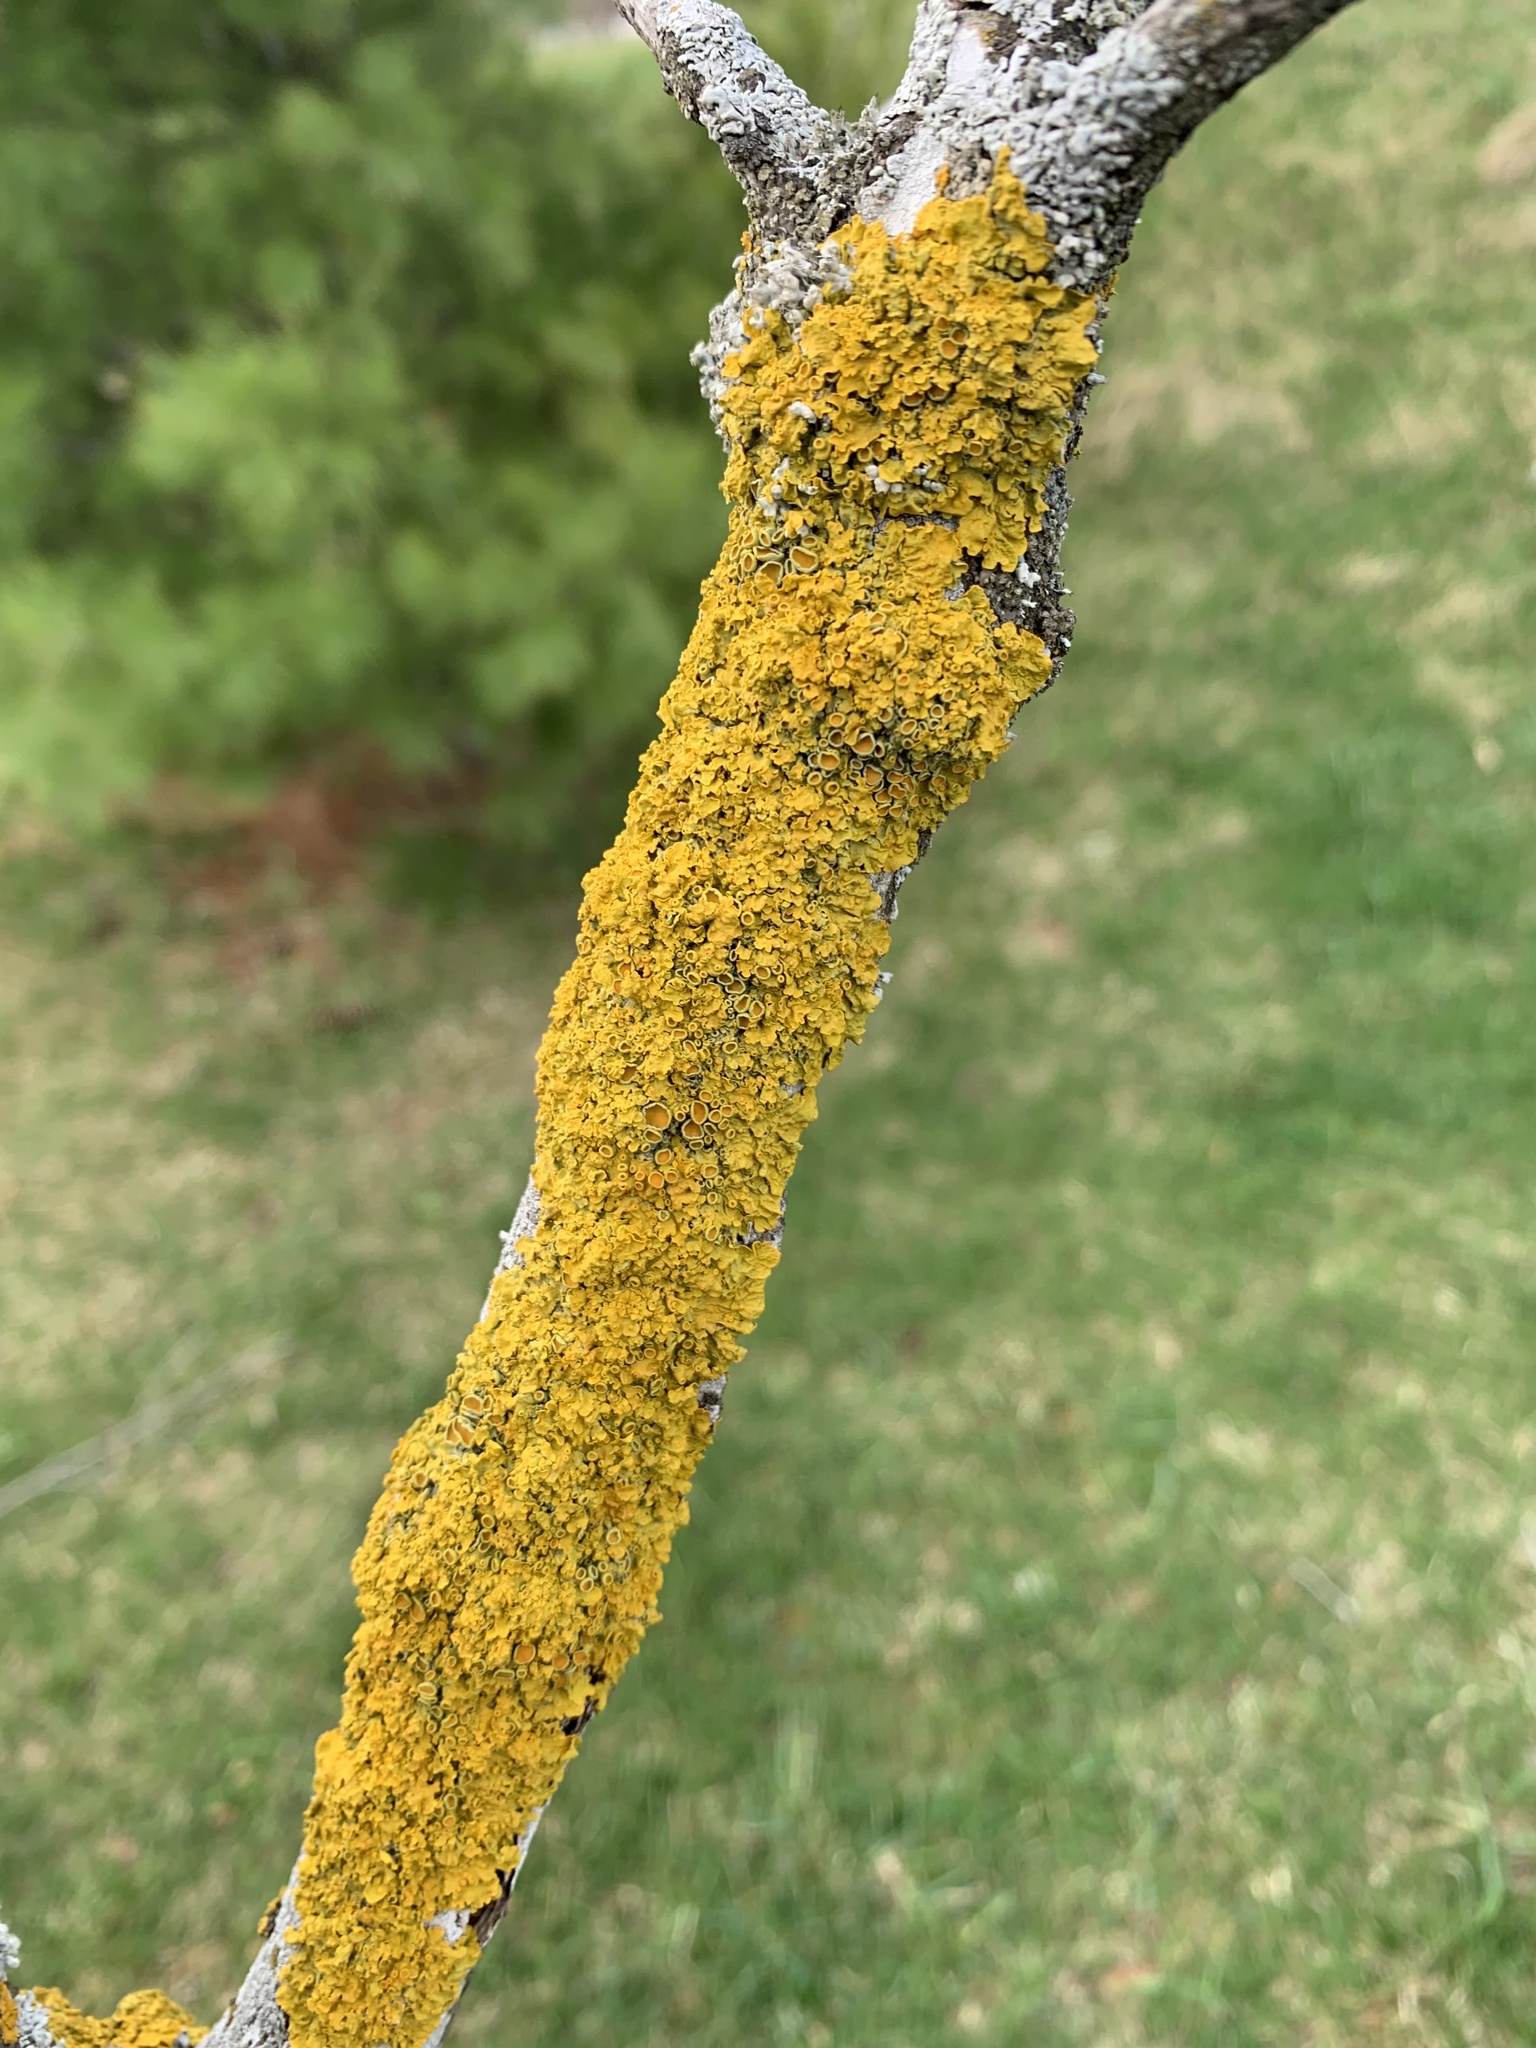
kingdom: Fungi
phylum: Ascomycota
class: Lecanoromycetes
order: Teloschistales
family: Teloschistaceae
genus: Xanthoria
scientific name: Xanthoria parietina
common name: Common orange lichen
